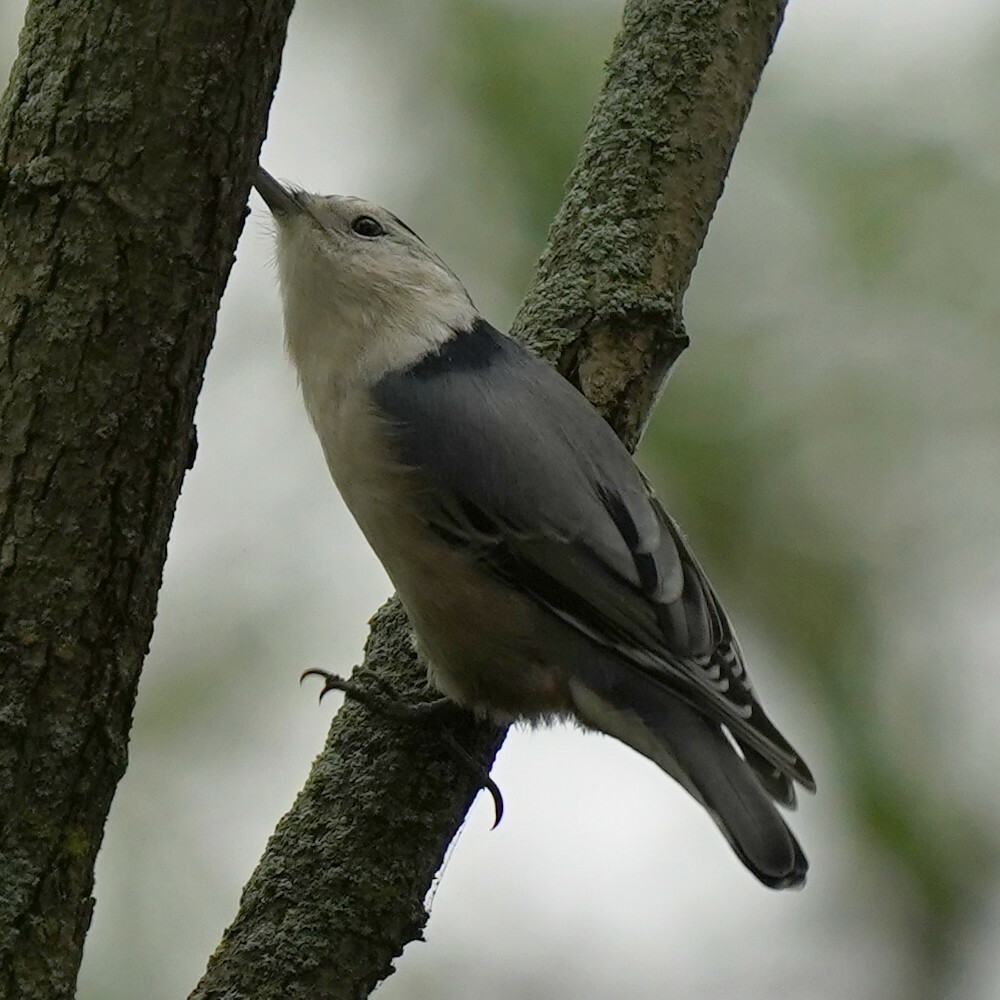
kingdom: Animalia
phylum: Chordata
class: Aves
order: Passeriformes
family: Sittidae
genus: Sitta
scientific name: Sitta carolinensis
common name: White-breasted nuthatch
